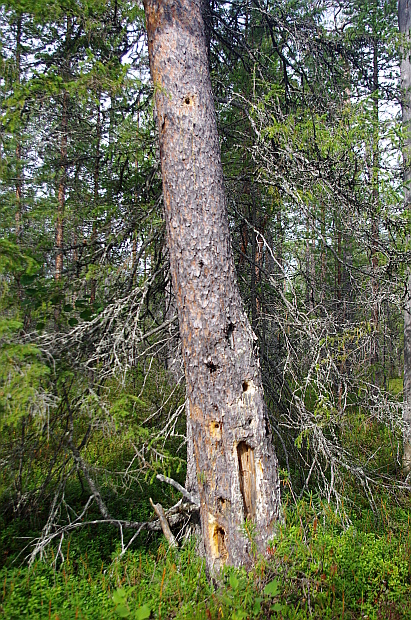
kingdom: Plantae
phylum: Tracheophyta
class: Pinopsida
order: Pinales
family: Pinaceae
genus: Pinus
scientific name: Pinus sylvestris
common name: Scots pine
